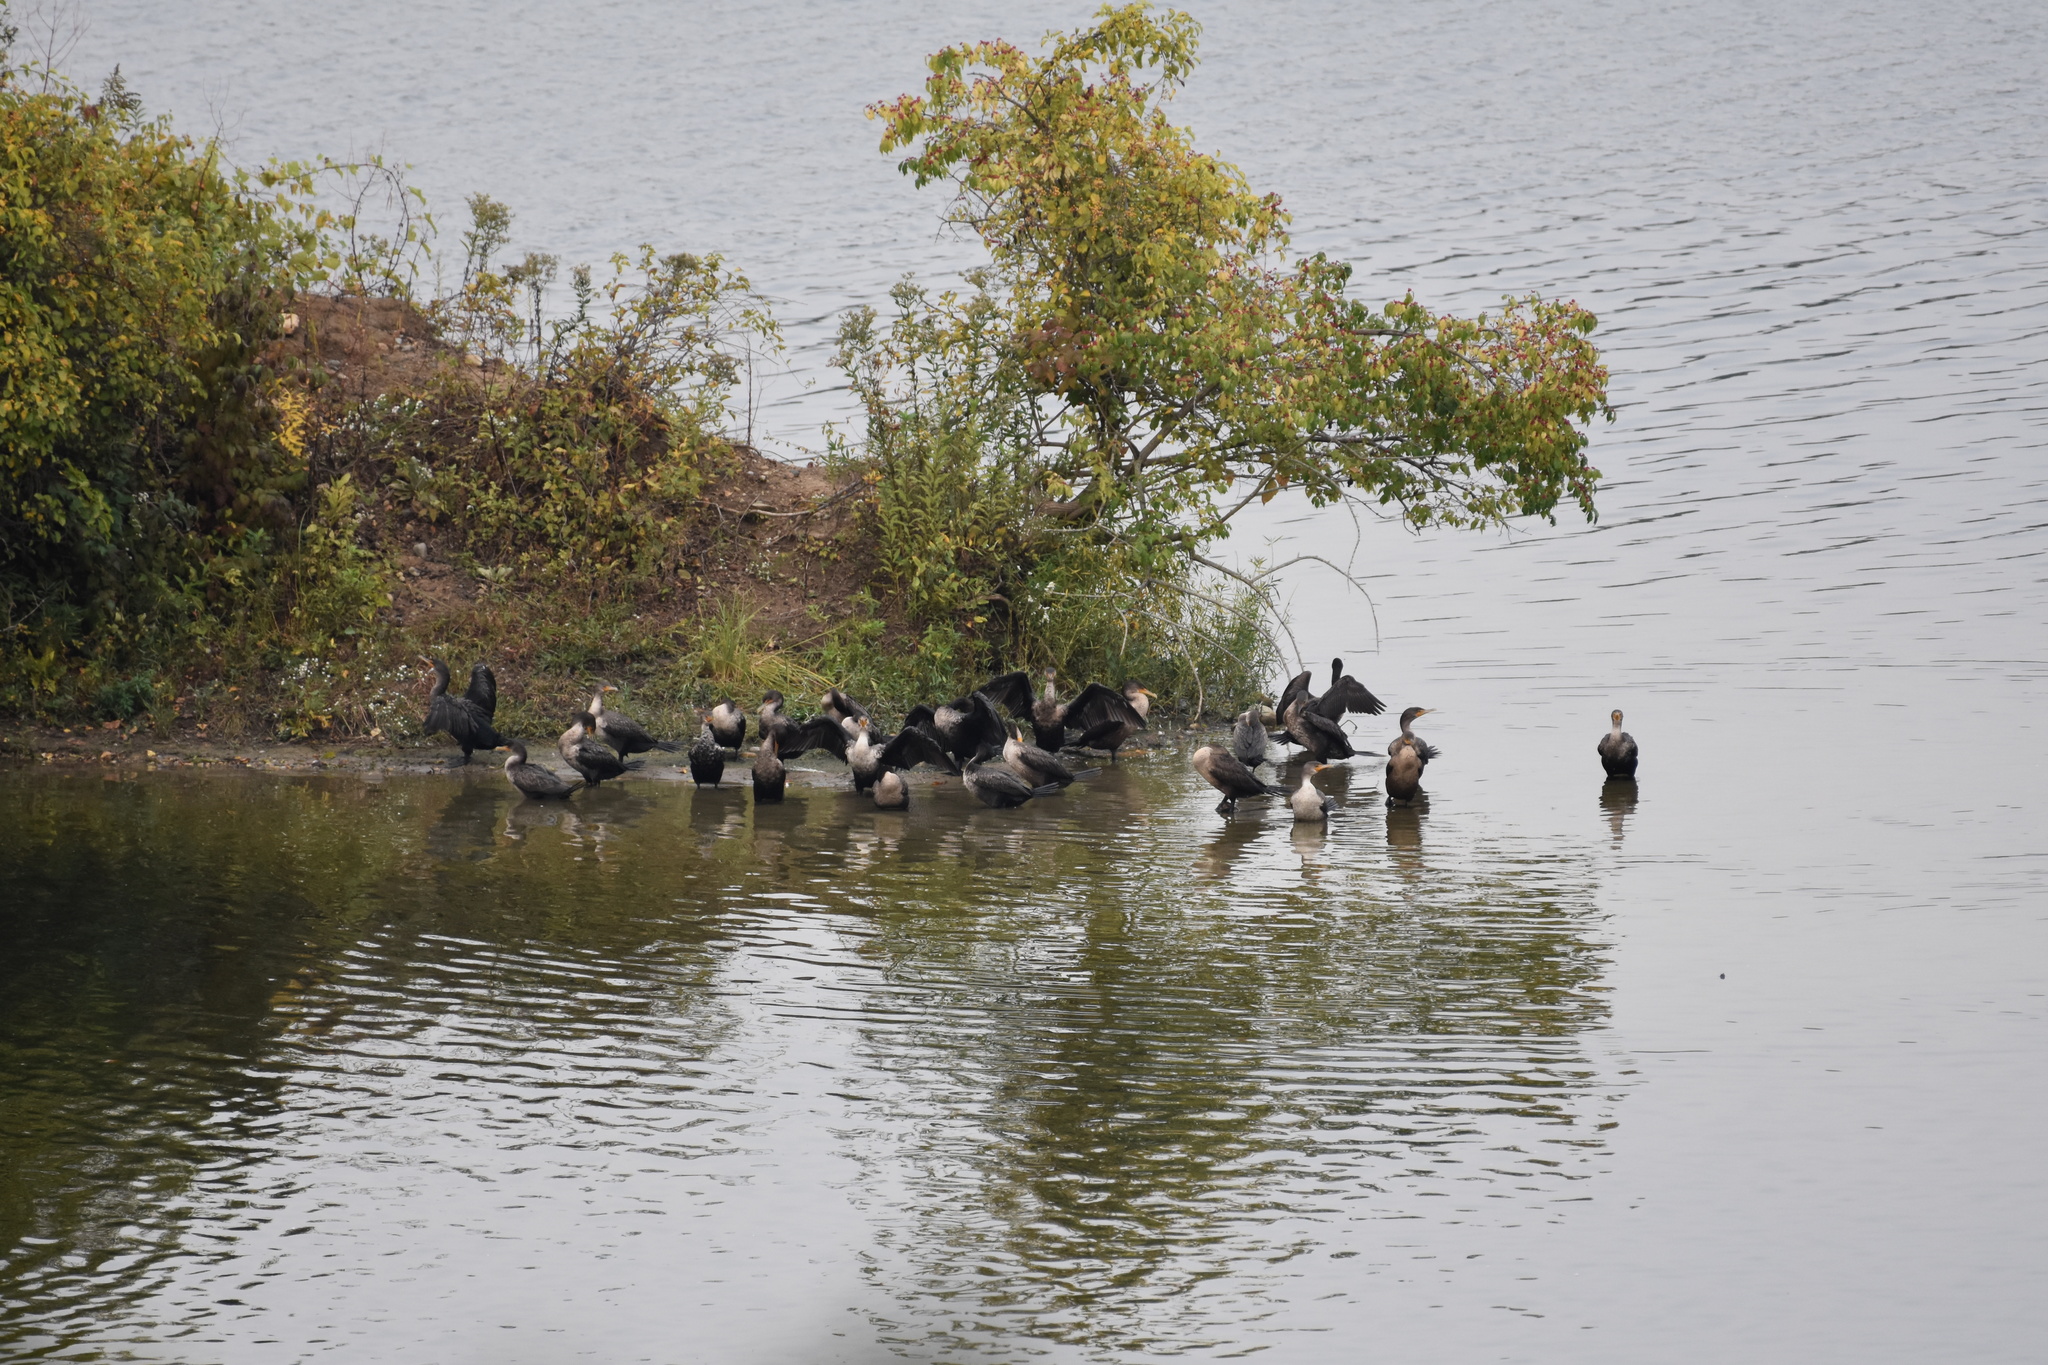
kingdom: Animalia
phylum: Chordata
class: Aves
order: Suliformes
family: Phalacrocoracidae
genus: Phalacrocorax
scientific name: Phalacrocorax auritus
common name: Double-crested cormorant
